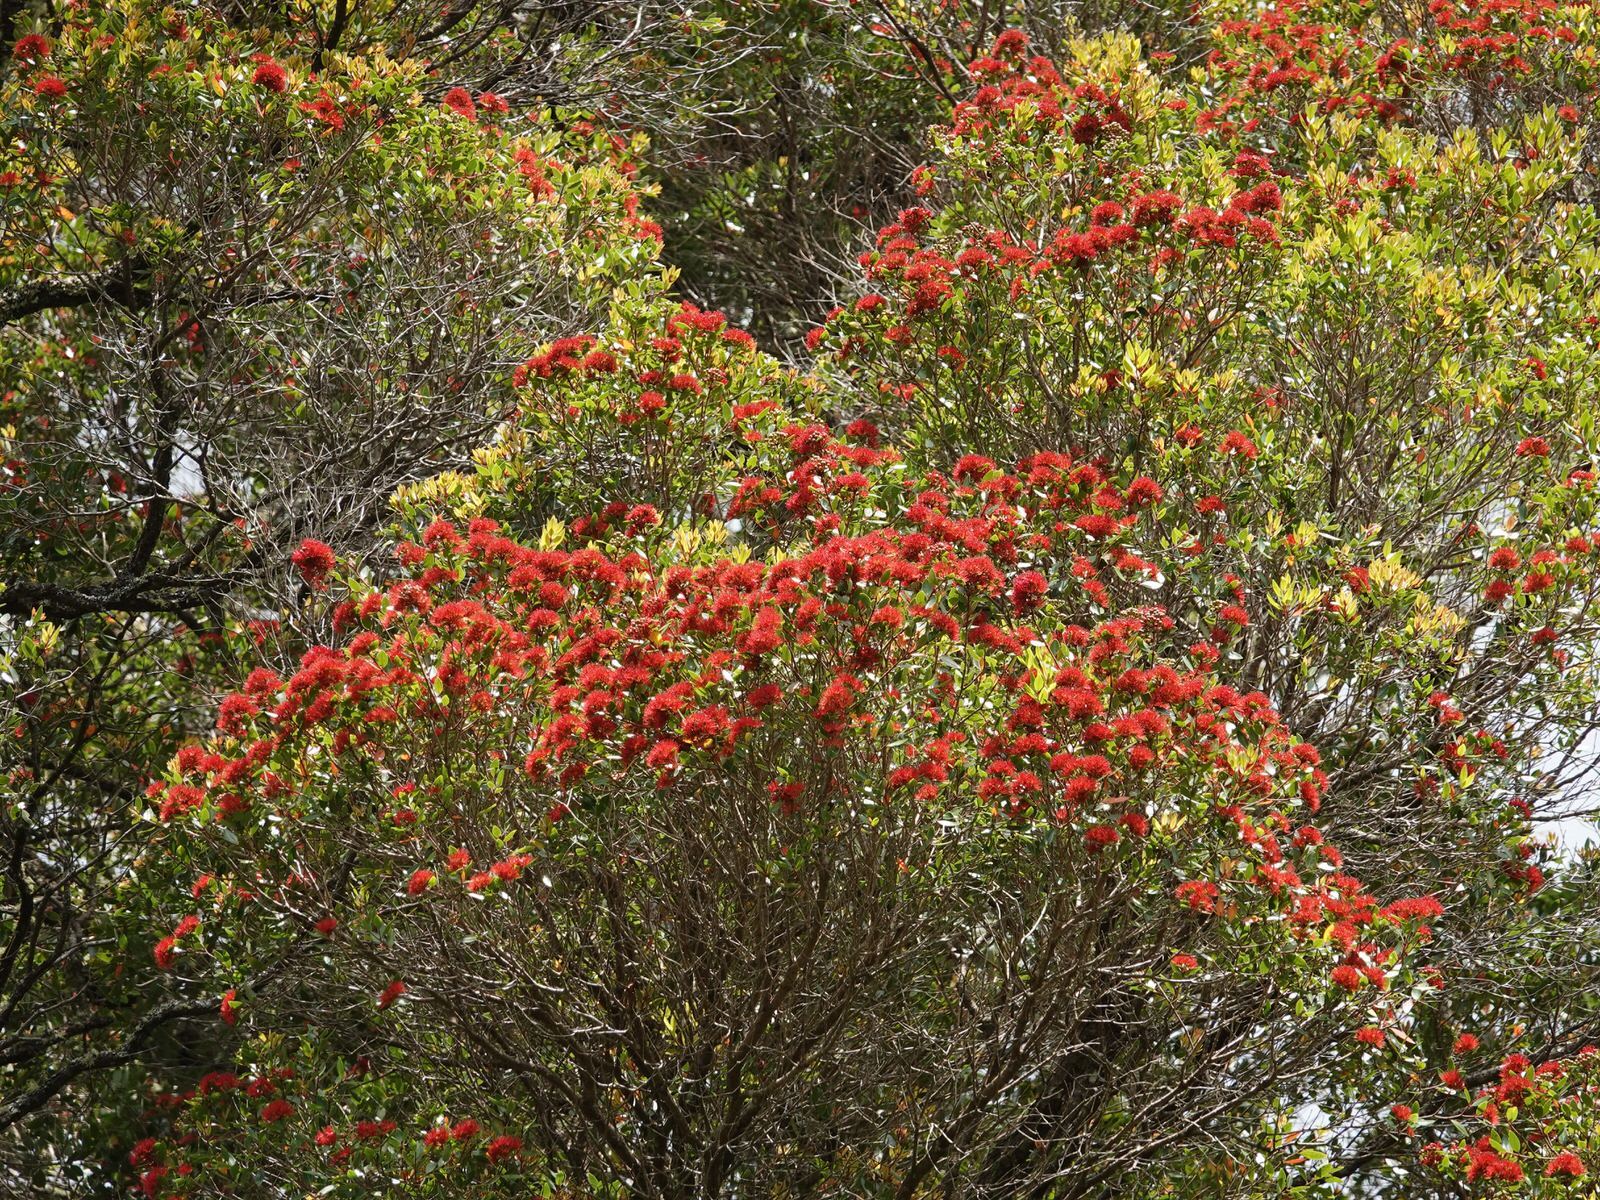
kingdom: Plantae
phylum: Tracheophyta
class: Magnoliopsida
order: Myrtales
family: Myrtaceae
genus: Metrosideros
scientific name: Metrosideros robusta
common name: Northern rata
